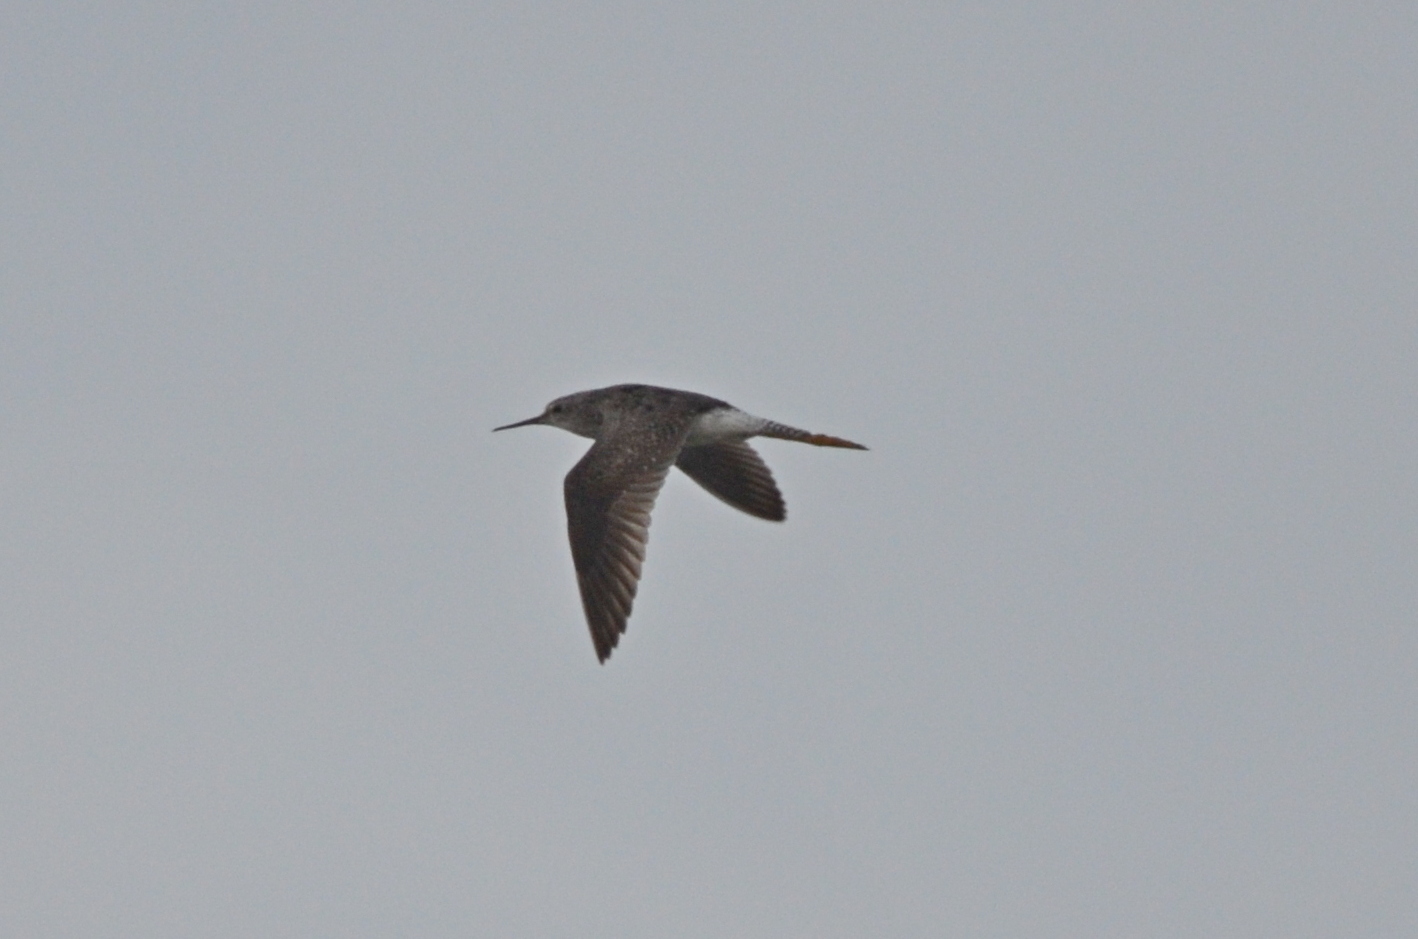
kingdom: Animalia
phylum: Chordata
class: Aves
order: Charadriiformes
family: Scolopacidae
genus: Tringa
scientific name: Tringa flavipes
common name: Lesser yellowlegs
